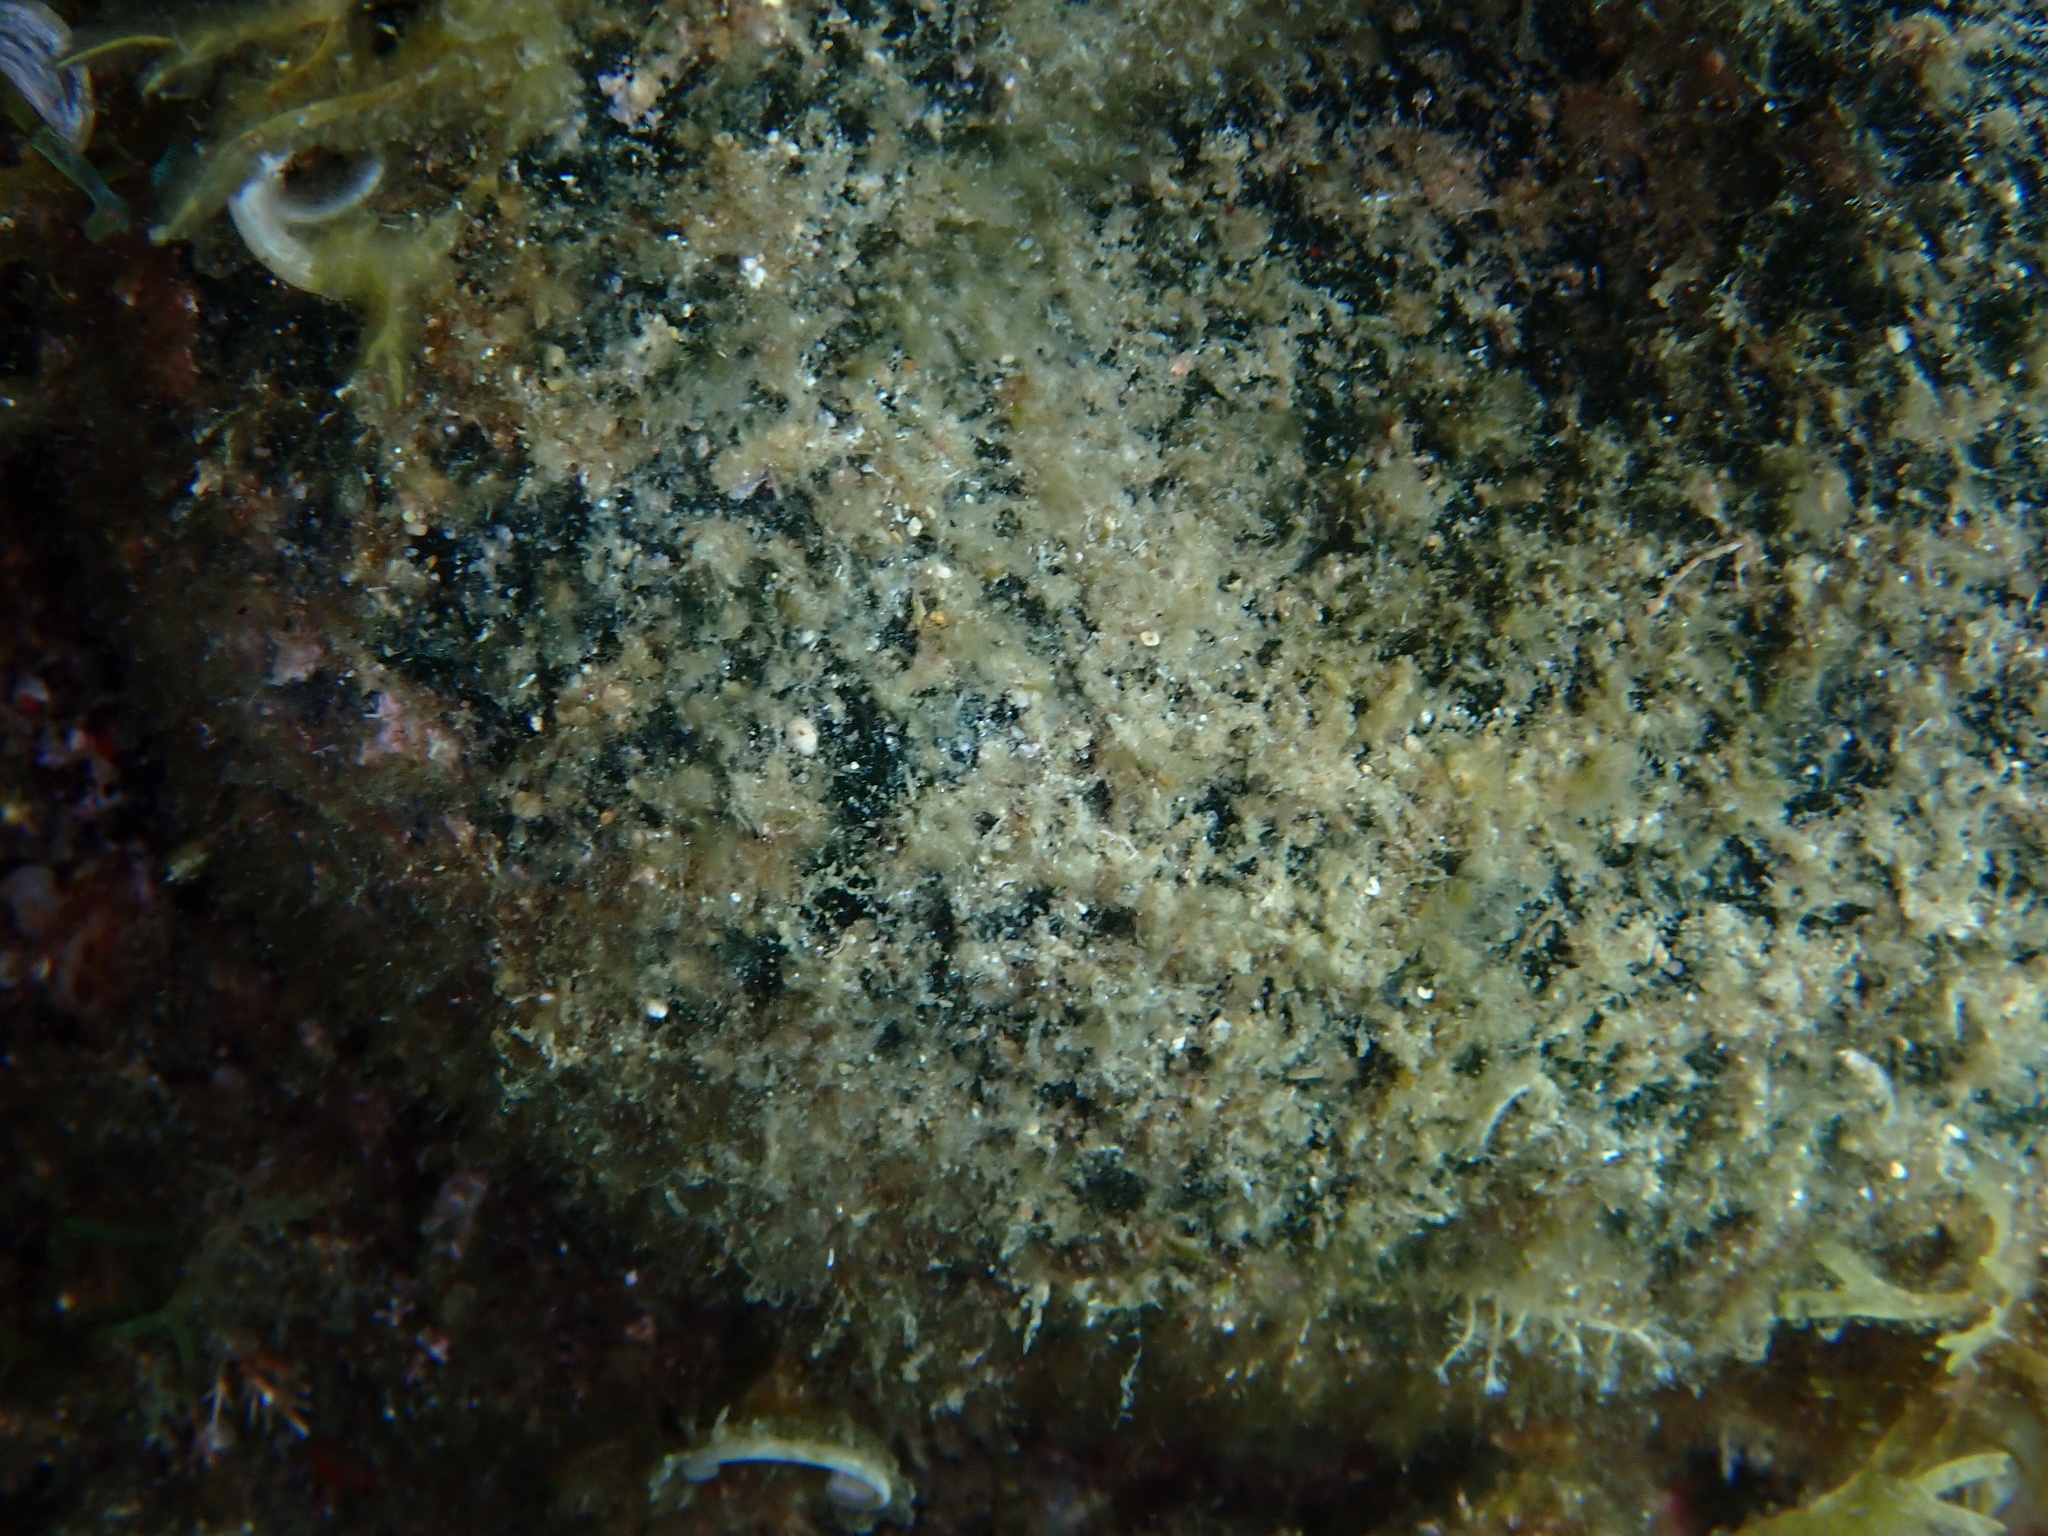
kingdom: Plantae
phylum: Chlorophyta
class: Ulvophyceae
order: Bryopsidales
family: Codiaceae
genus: Codium
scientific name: Codium bursa
